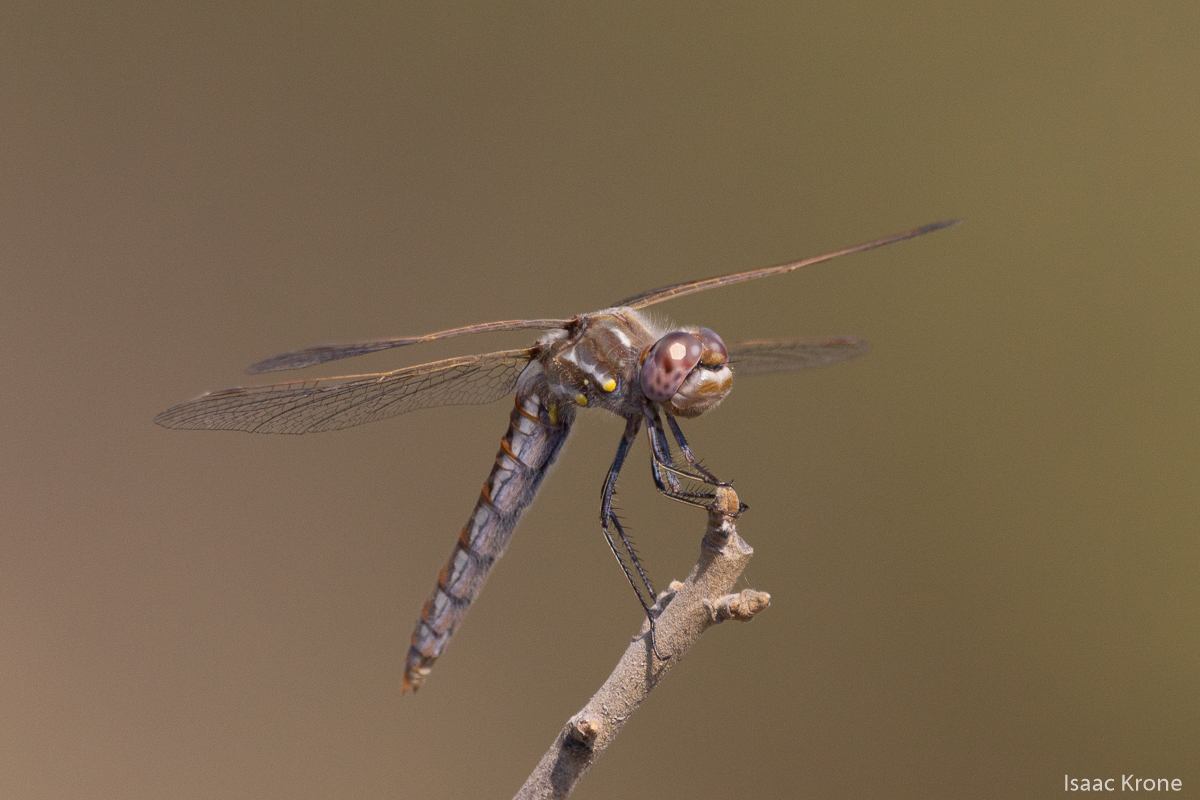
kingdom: Animalia
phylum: Arthropoda
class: Insecta
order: Odonata
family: Libellulidae
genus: Sympetrum
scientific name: Sympetrum corruptum
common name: Variegated meadowhawk
